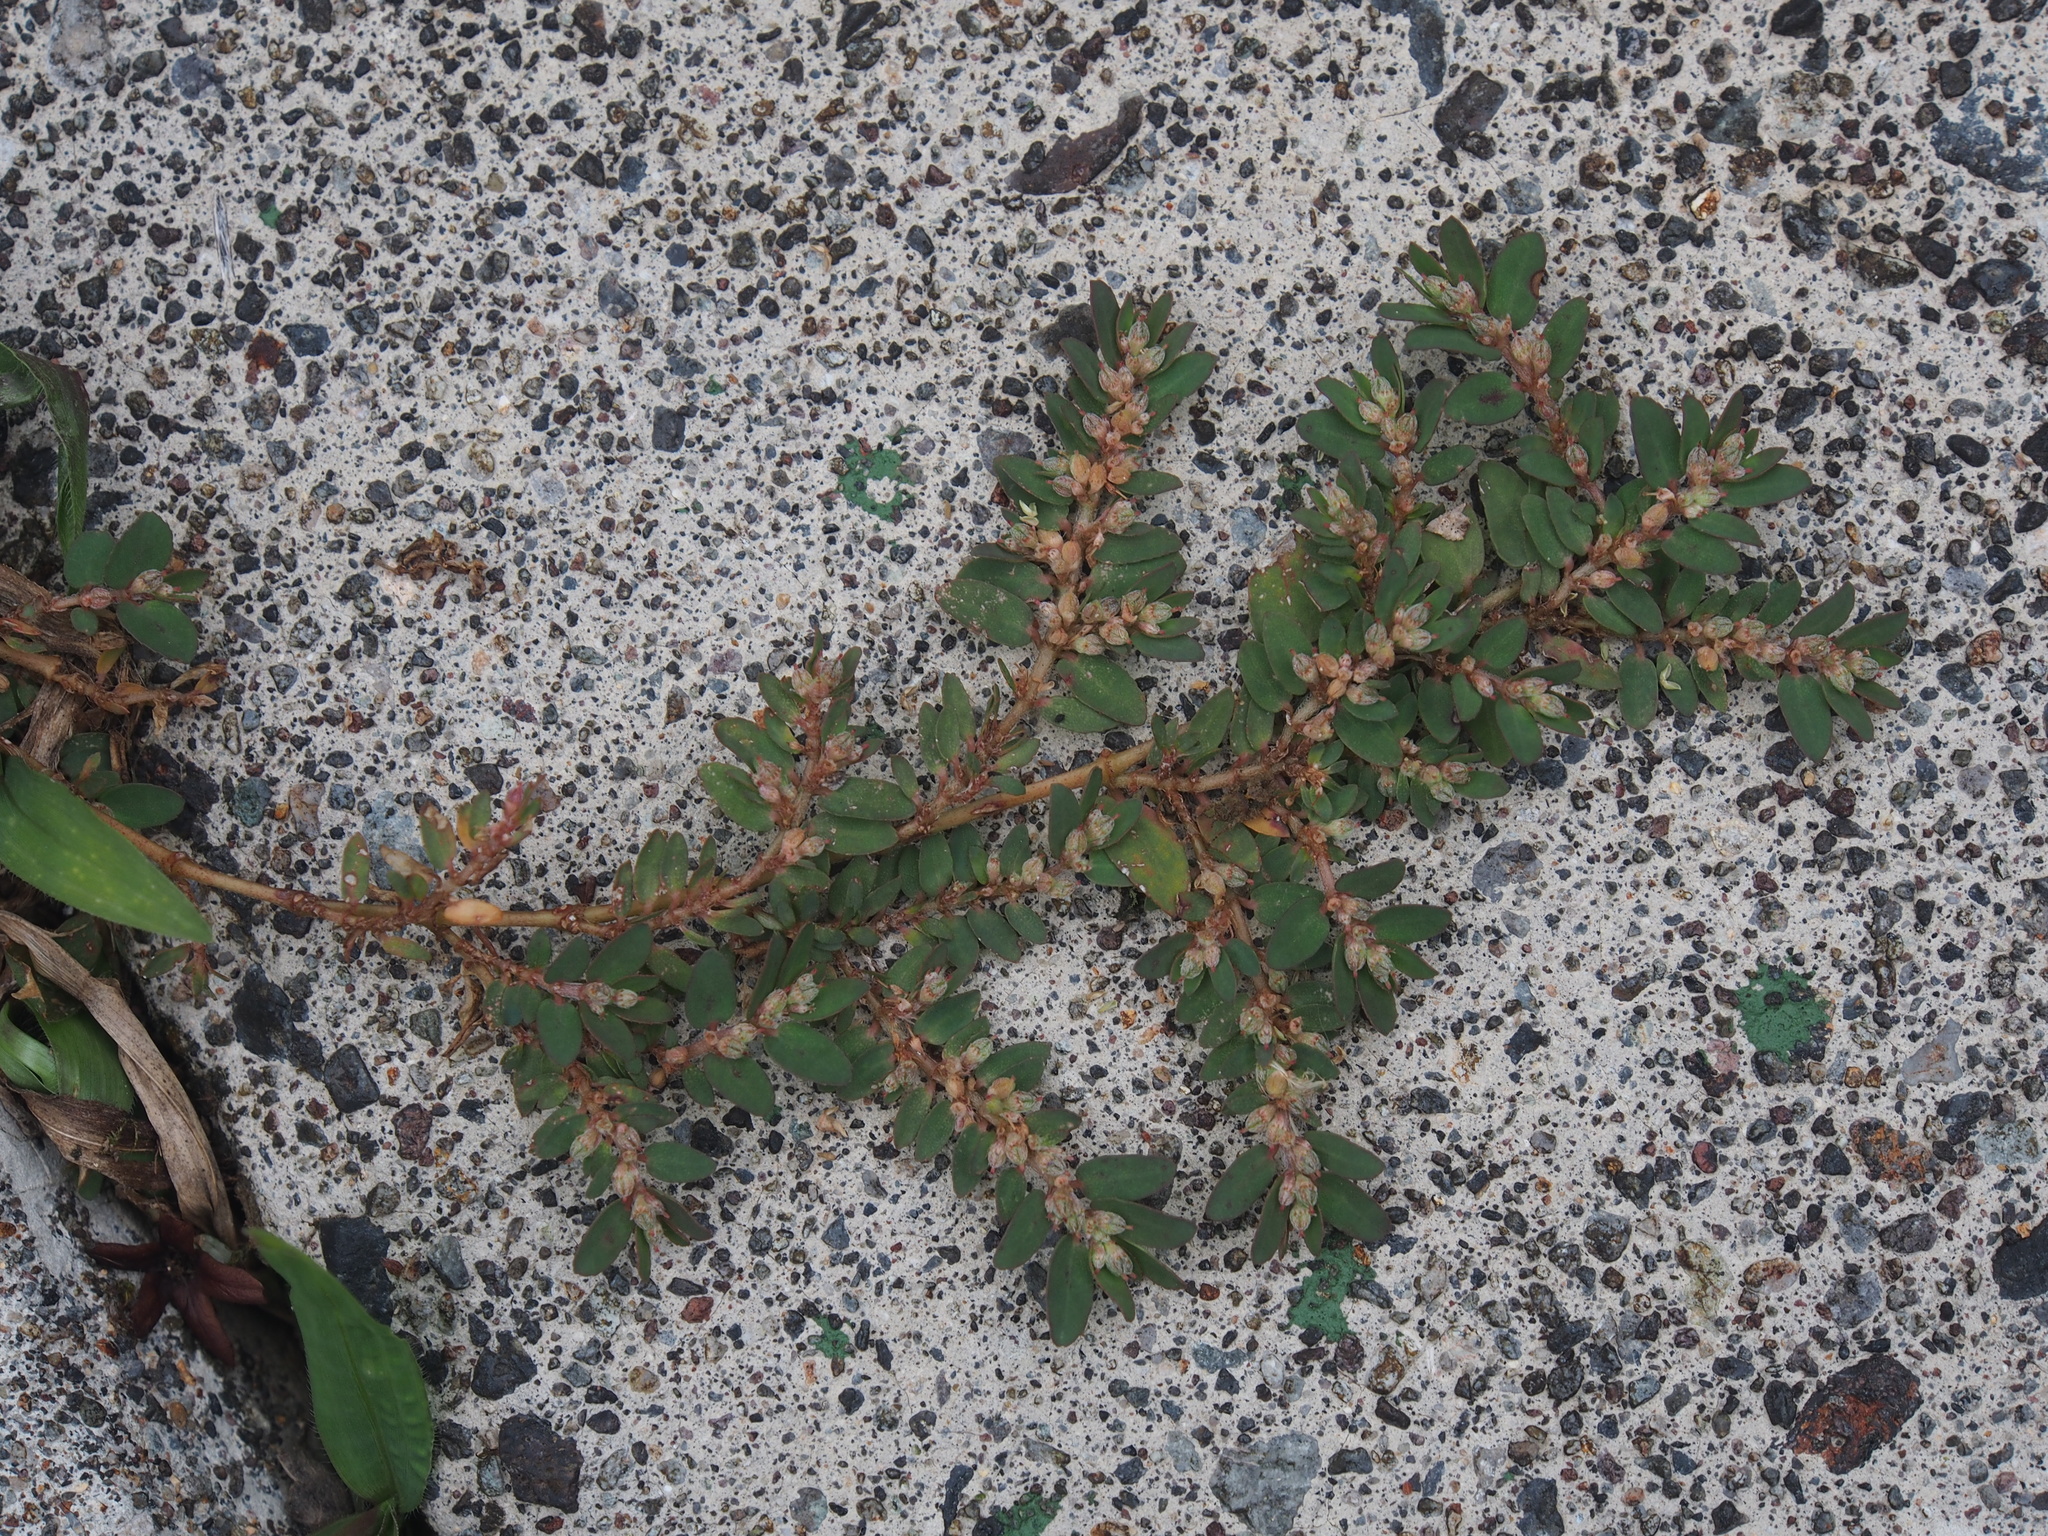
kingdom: Plantae
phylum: Tracheophyta
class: Magnoliopsida
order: Malpighiales
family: Euphorbiaceae
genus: Euphorbia
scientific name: Euphorbia thymifolia
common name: Gulf sandmat
